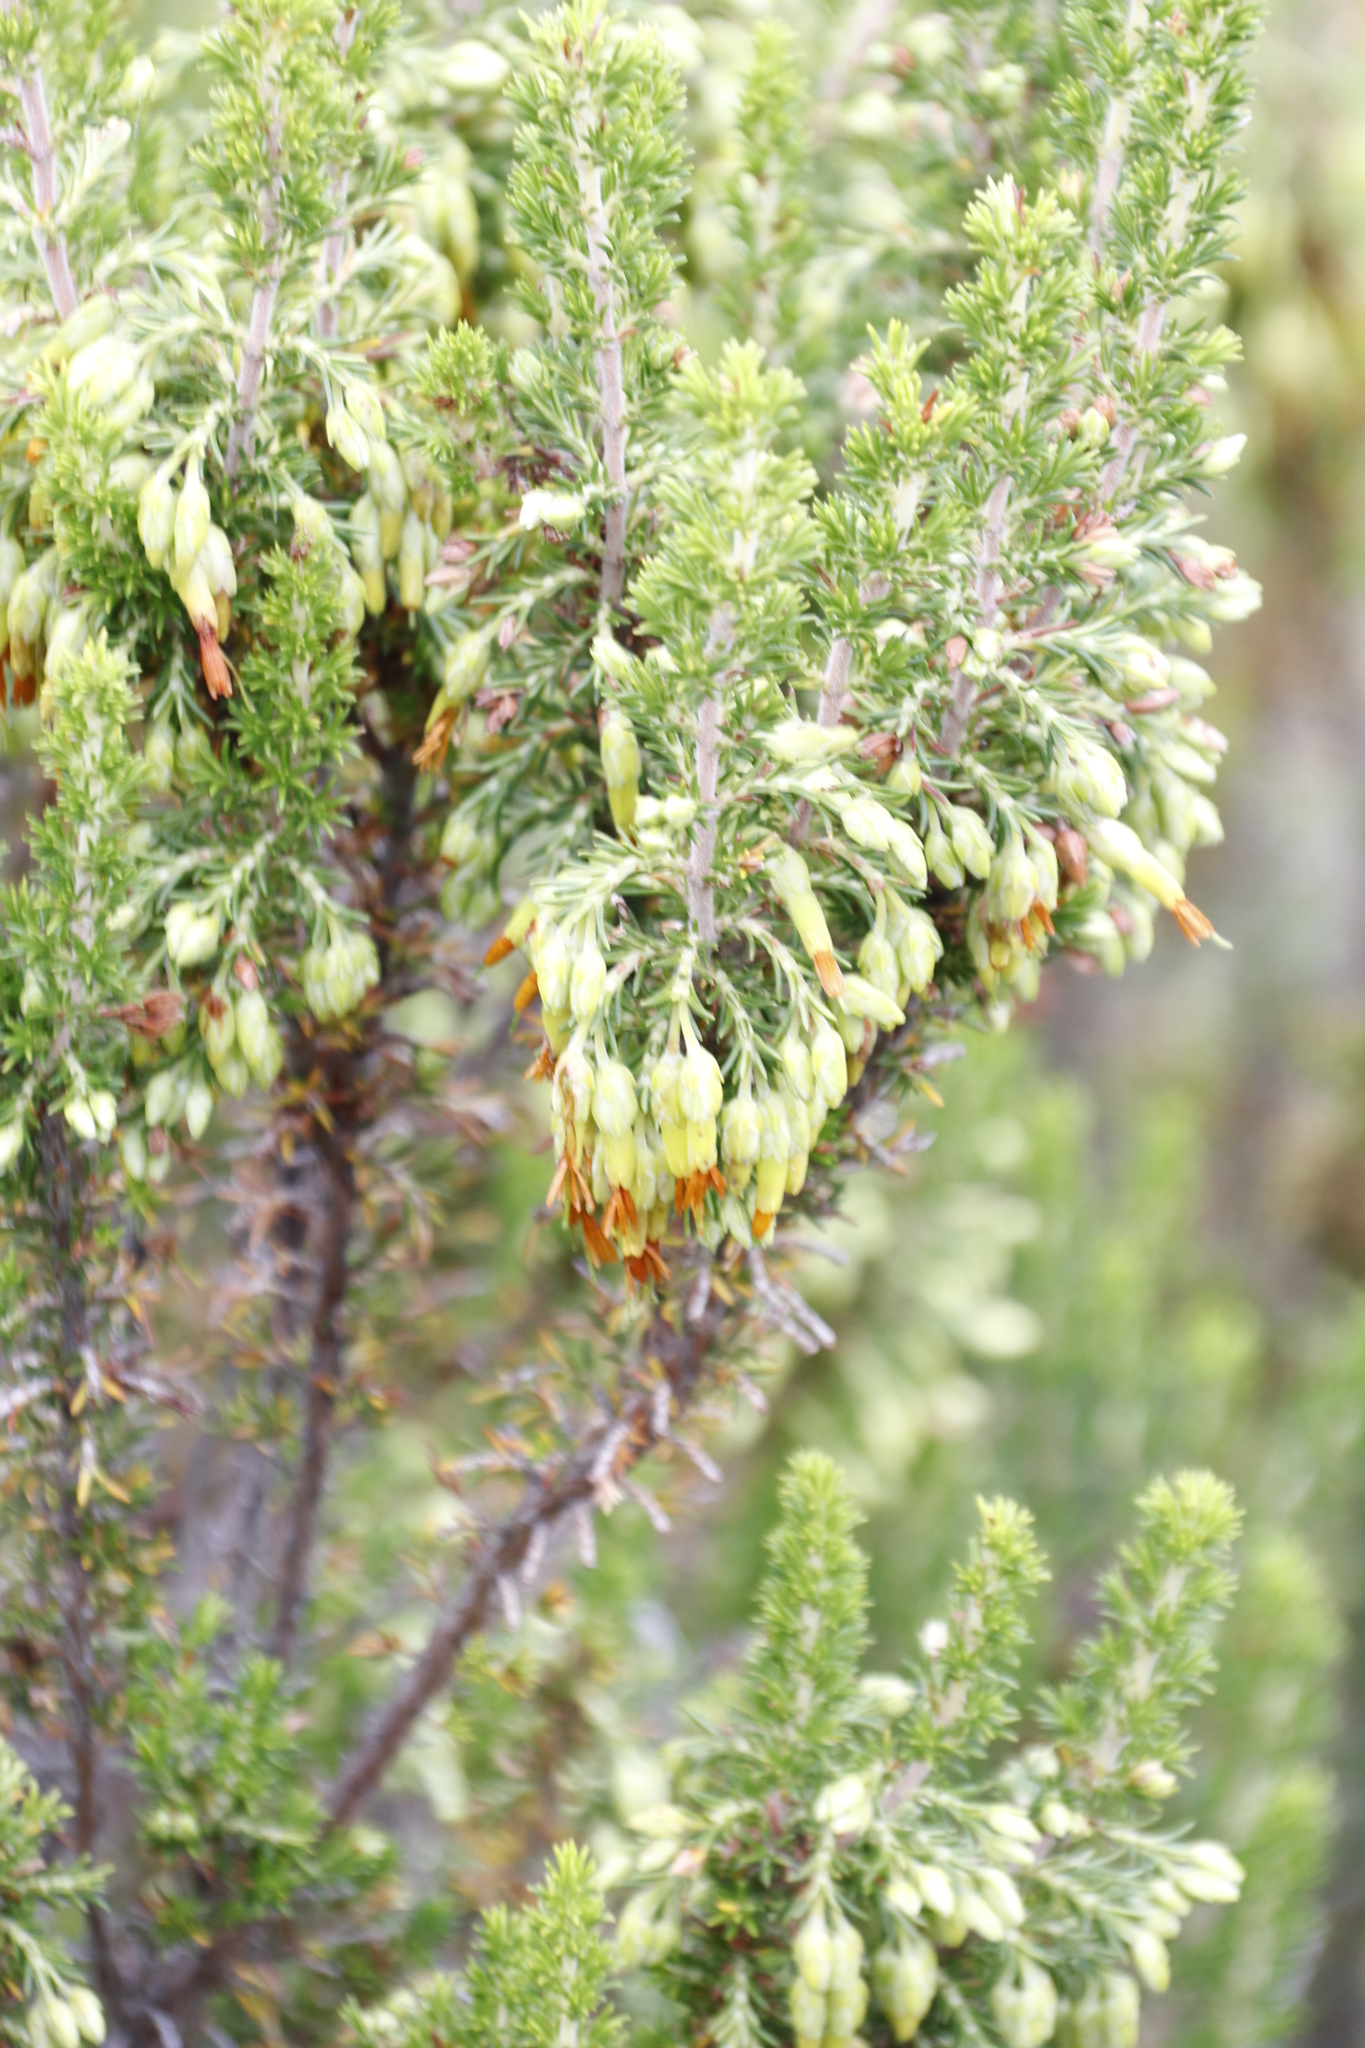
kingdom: Plantae
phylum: Tracheophyta
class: Magnoliopsida
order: Ericales
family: Ericaceae
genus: Erica
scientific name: Erica coccinea
